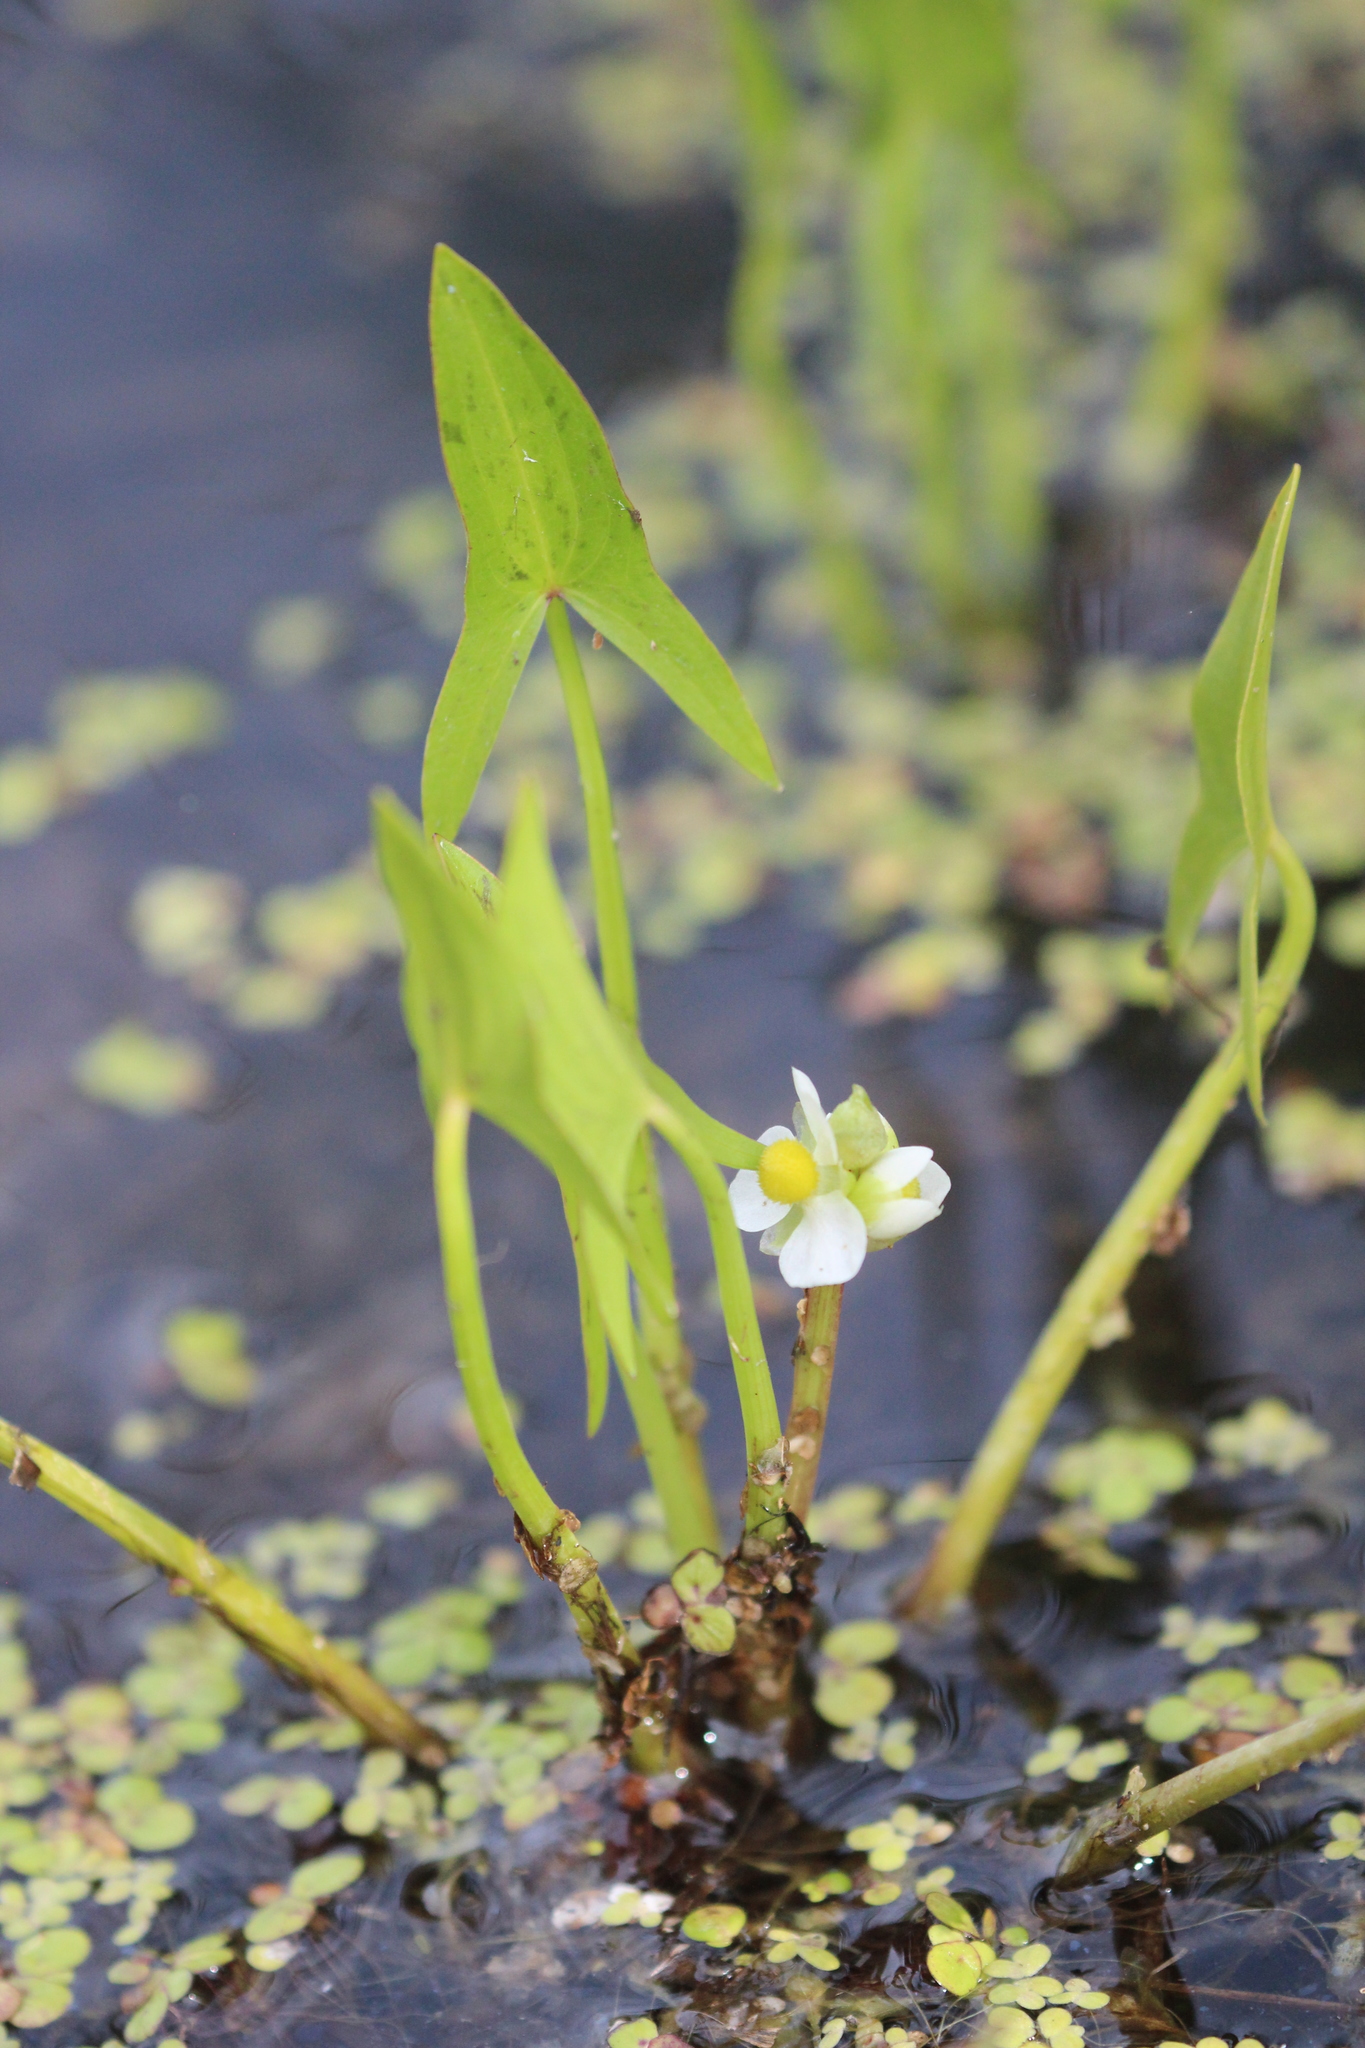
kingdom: Plantae
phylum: Tracheophyta
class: Liliopsida
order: Alismatales
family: Alismataceae
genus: Sagittaria
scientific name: Sagittaria latifolia
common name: Duck-potato
